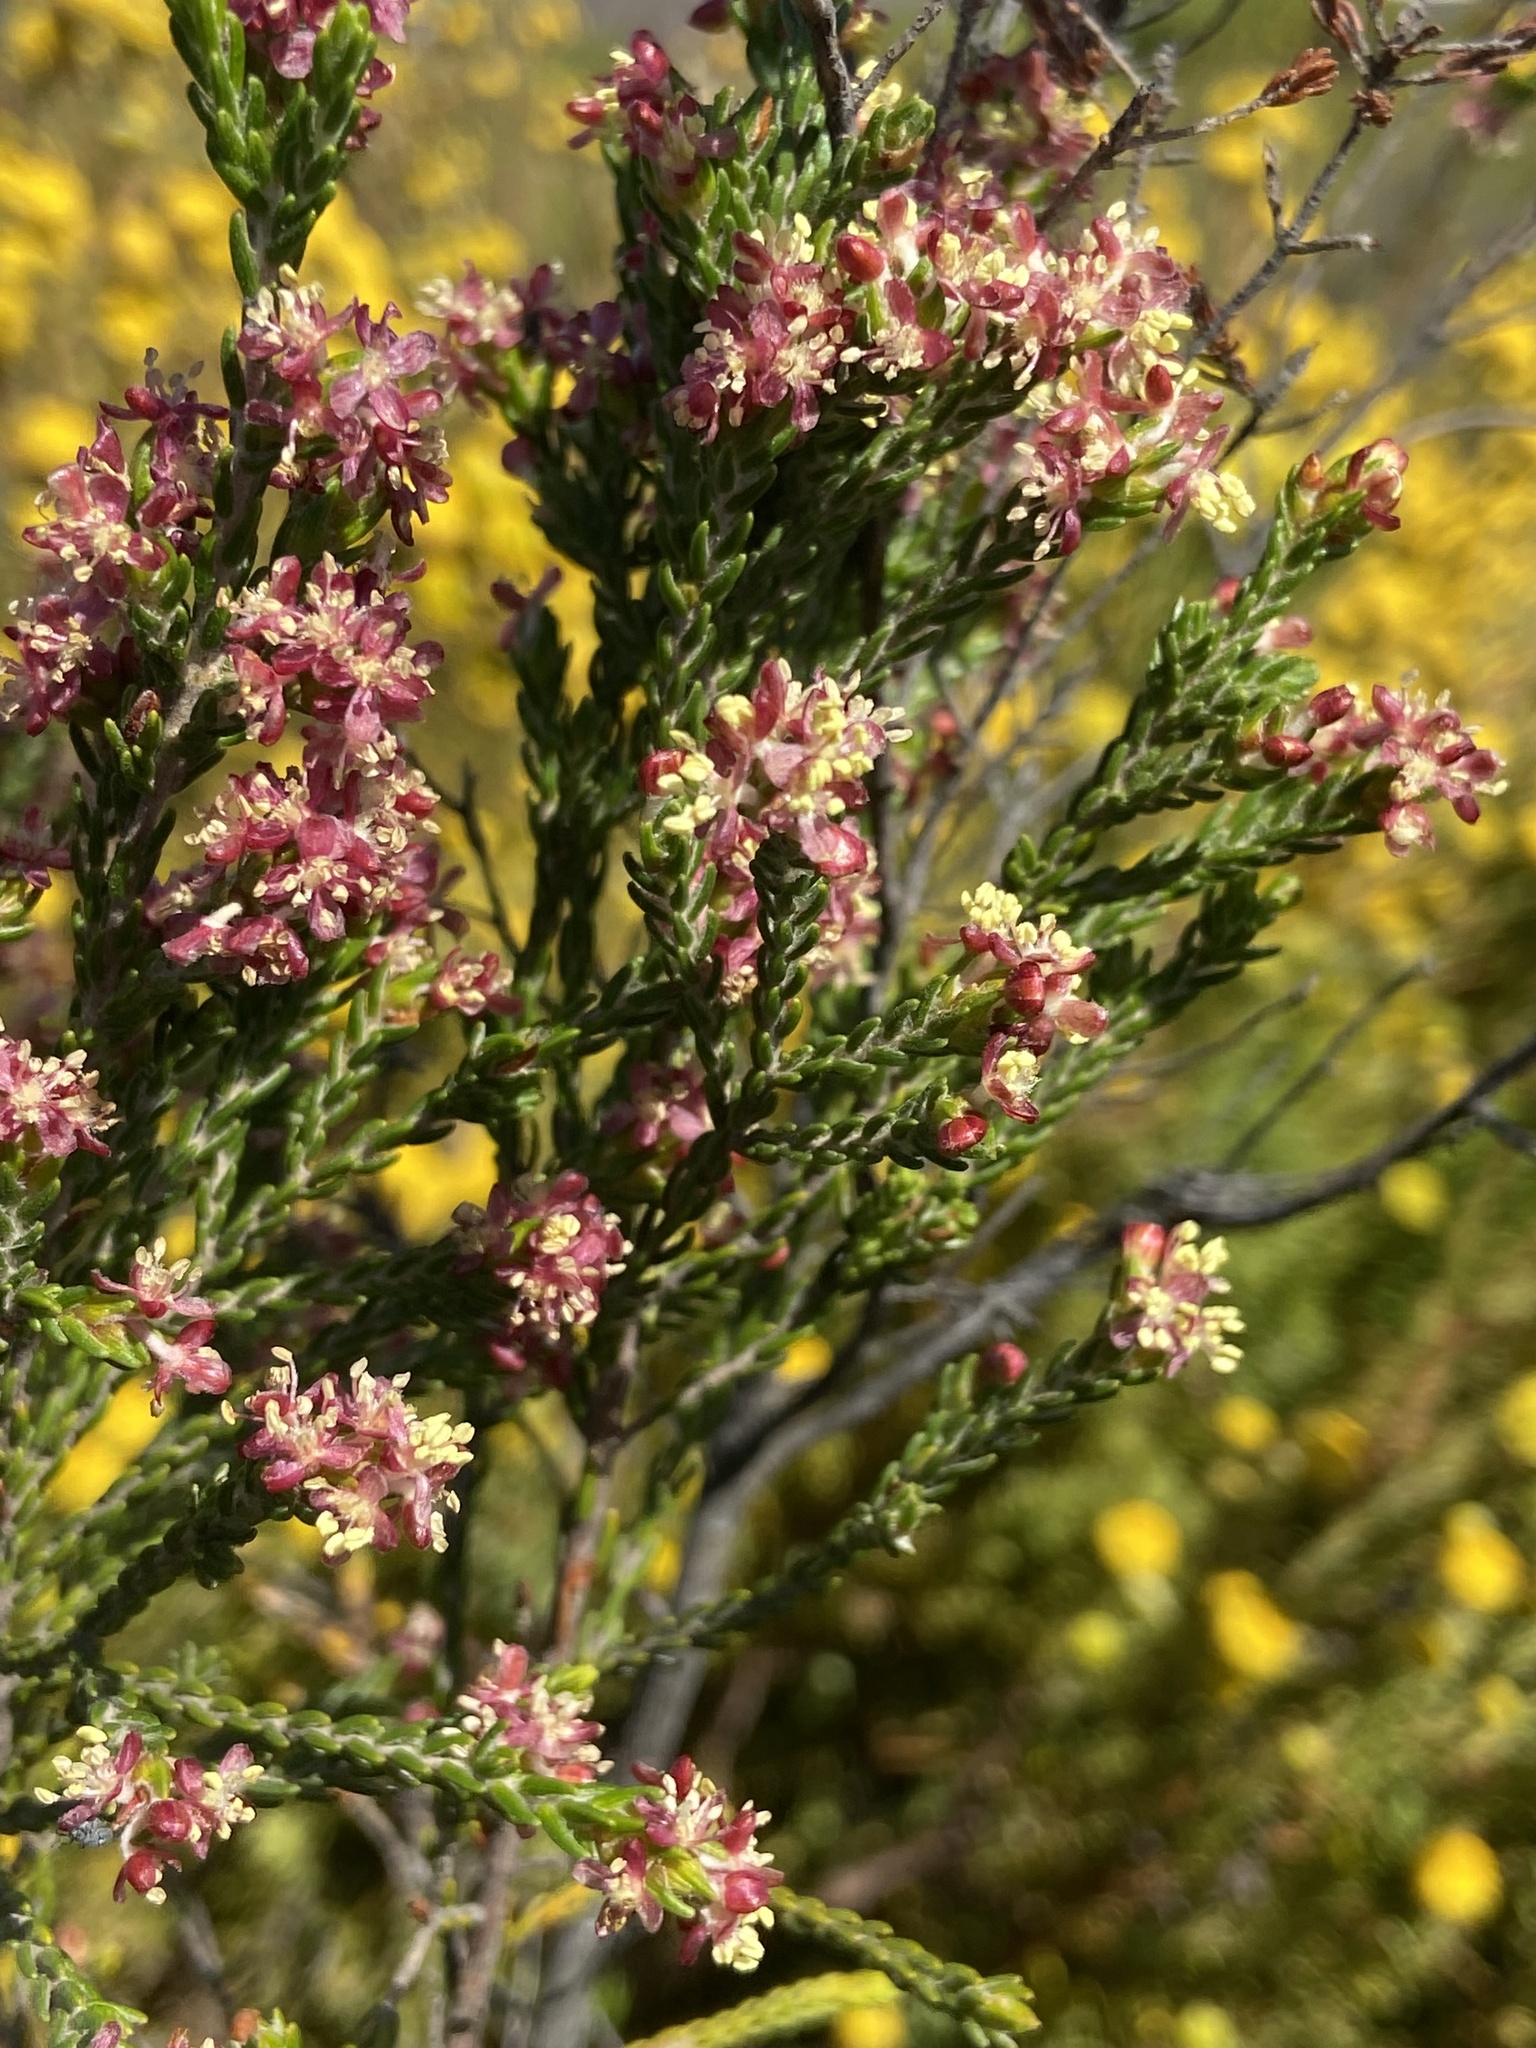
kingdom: Plantae
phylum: Tracheophyta
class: Magnoliopsida
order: Malvales
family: Thymelaeaceae
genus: Passerina
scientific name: Passerina corymbosa
